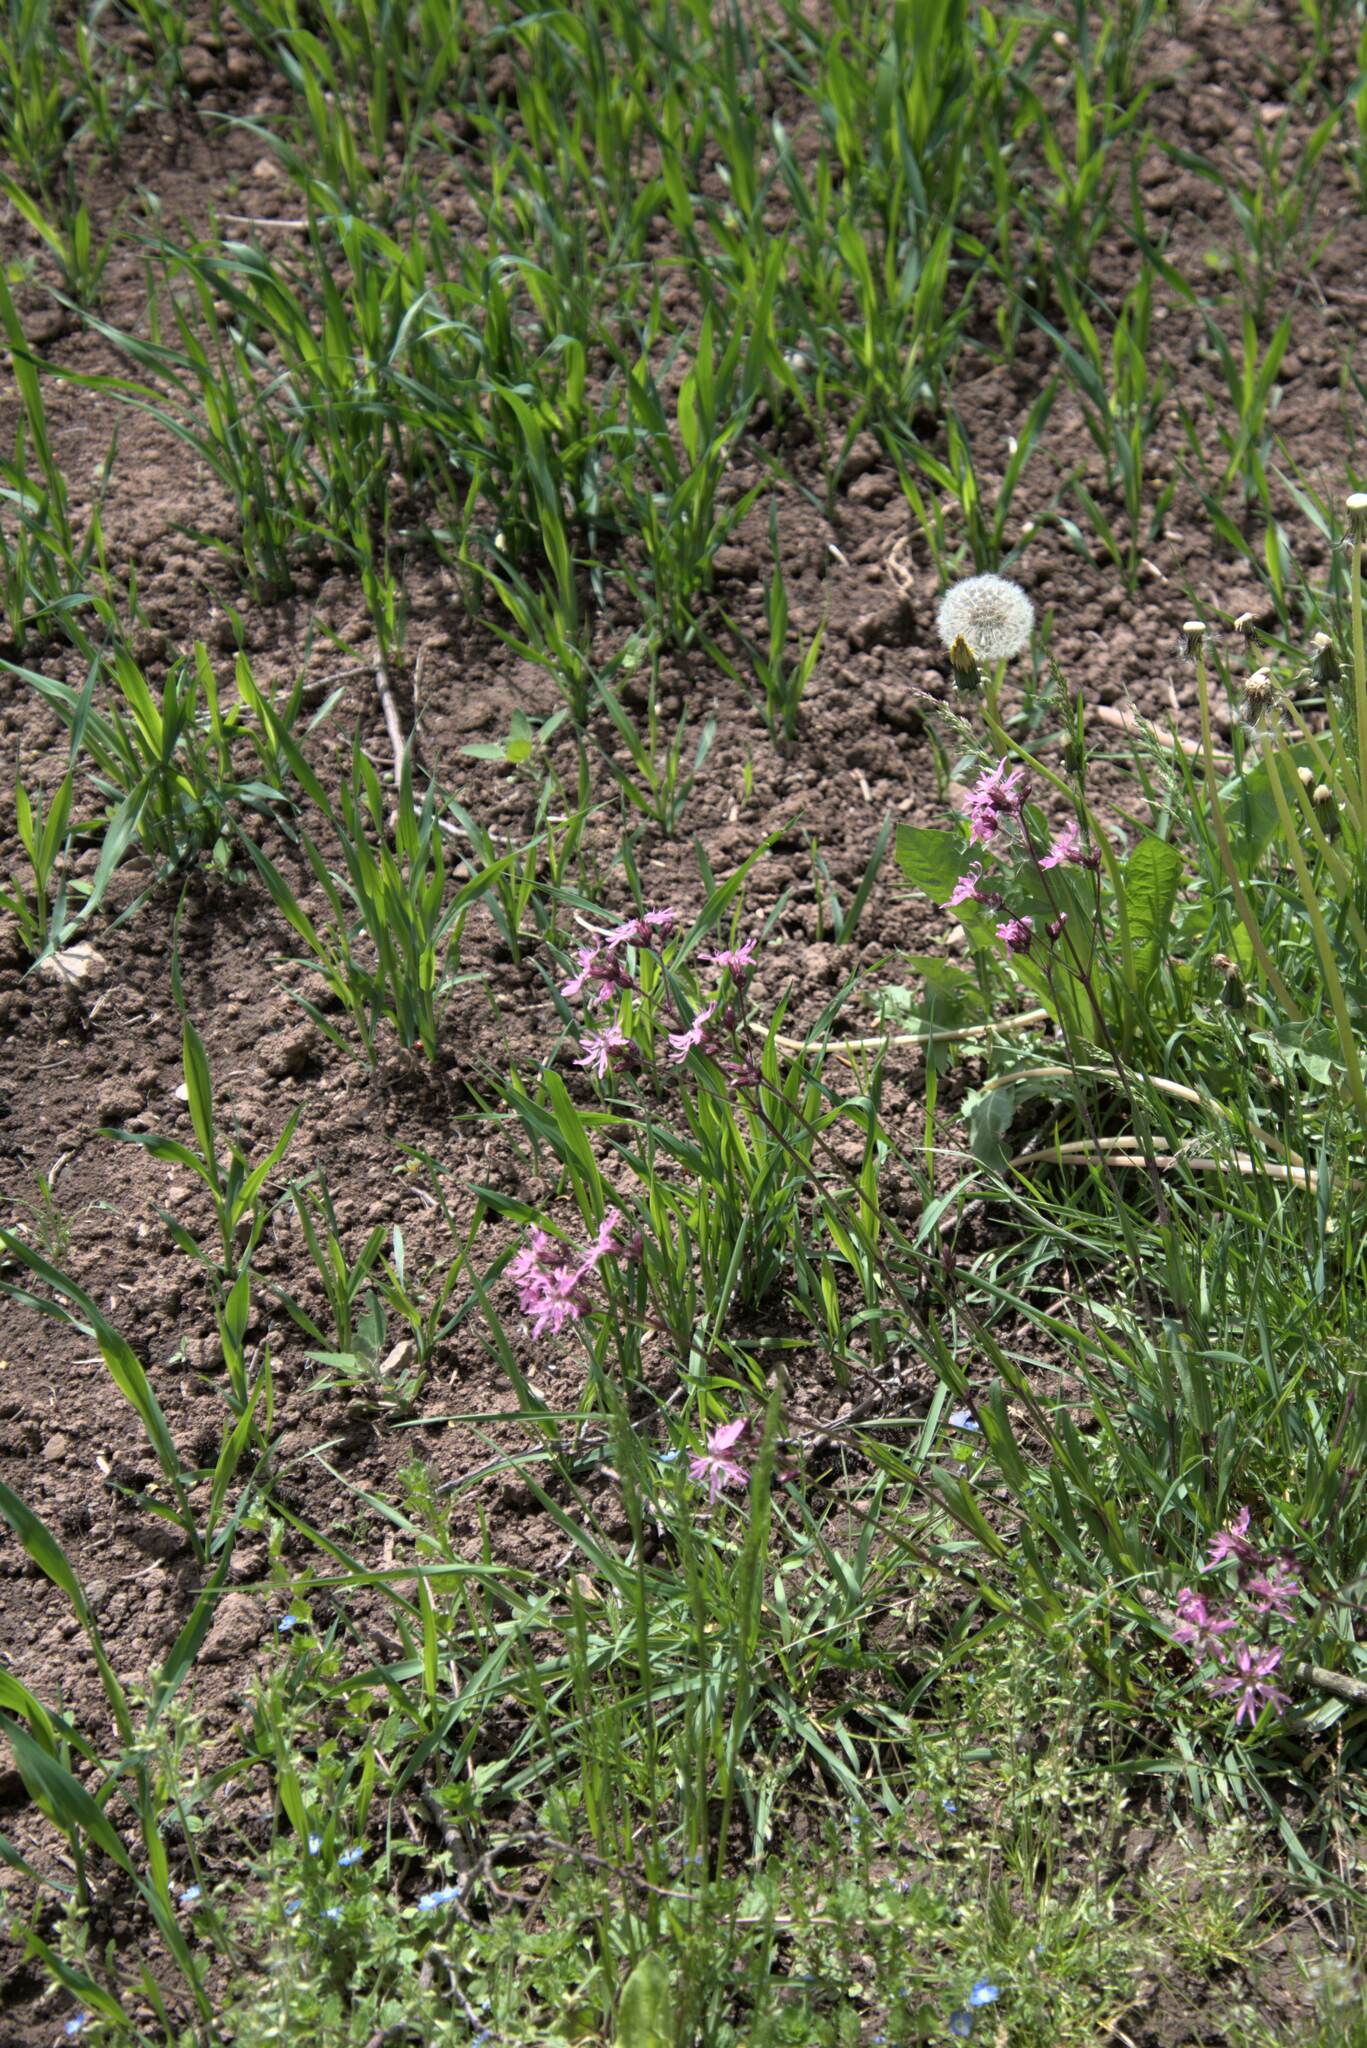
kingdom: Plantae
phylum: Tracheophyta
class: Magnoliopsida
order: Caryophyllales
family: Caryophyllaceae
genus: Silene
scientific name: Silene flos-cuculi
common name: Ragged-robin
